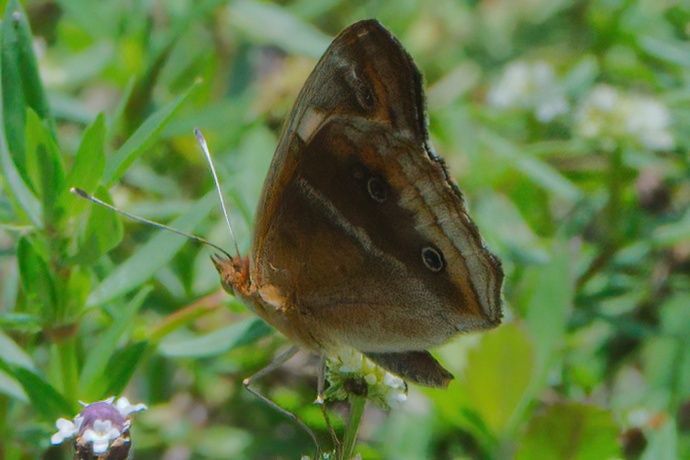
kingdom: Animalia
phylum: Arthropoda
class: Insecta
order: Lepidoptera
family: Nymphalidae
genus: Junonia
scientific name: Junonia lavinia
